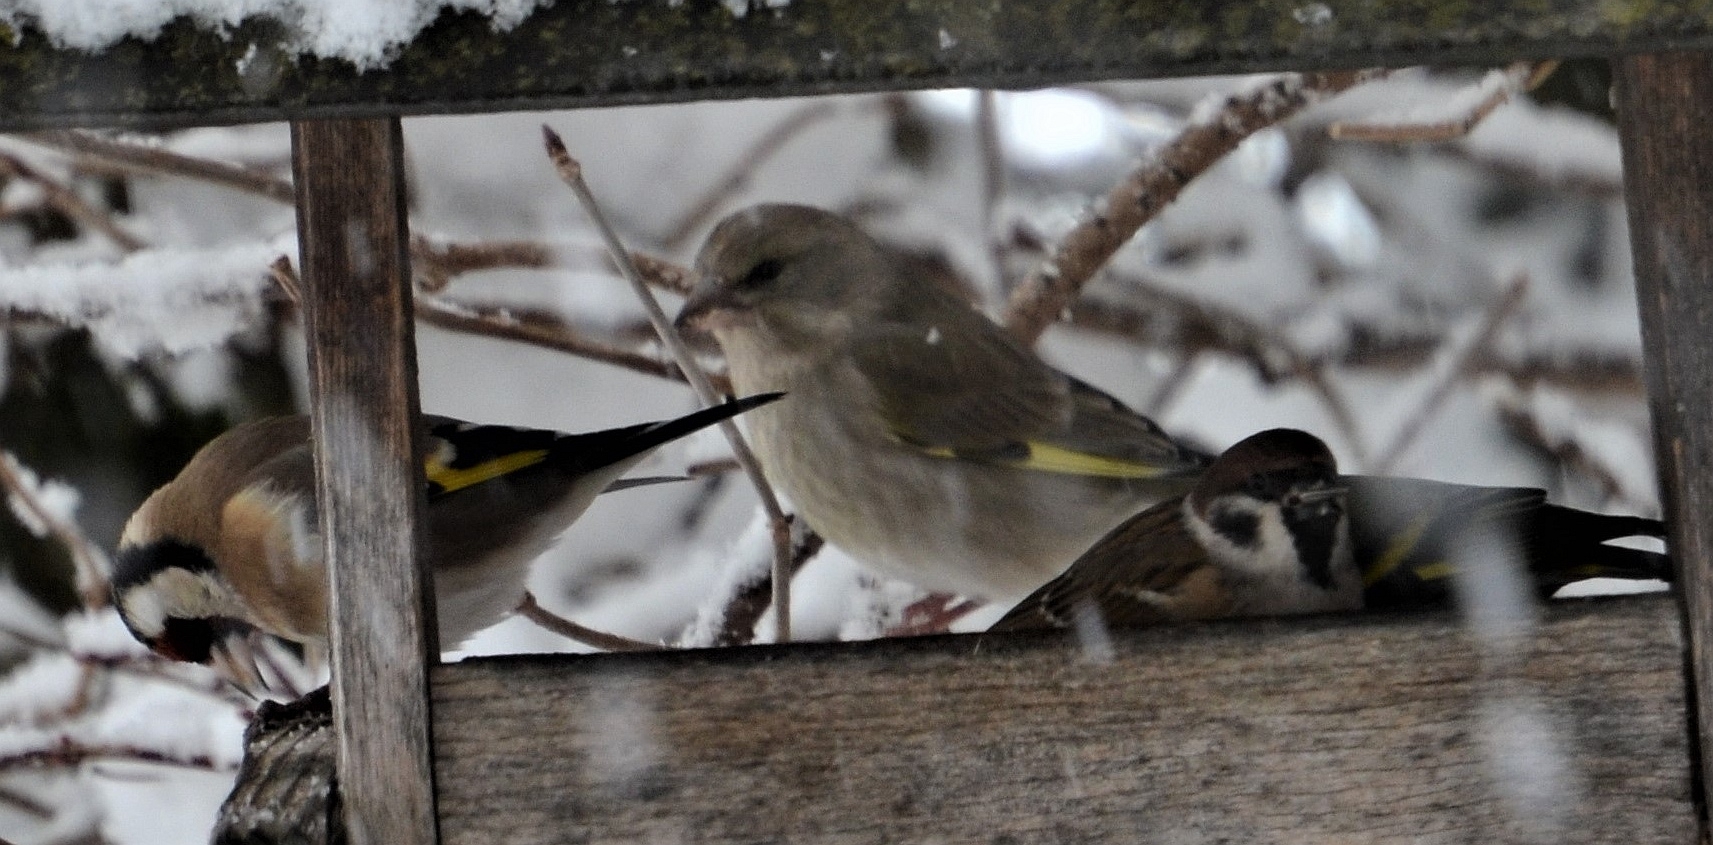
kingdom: Plantae
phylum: Tracheophyta
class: Liliopsida
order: Poales
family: Poaceae
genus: Chloris
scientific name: Chloris chloris
